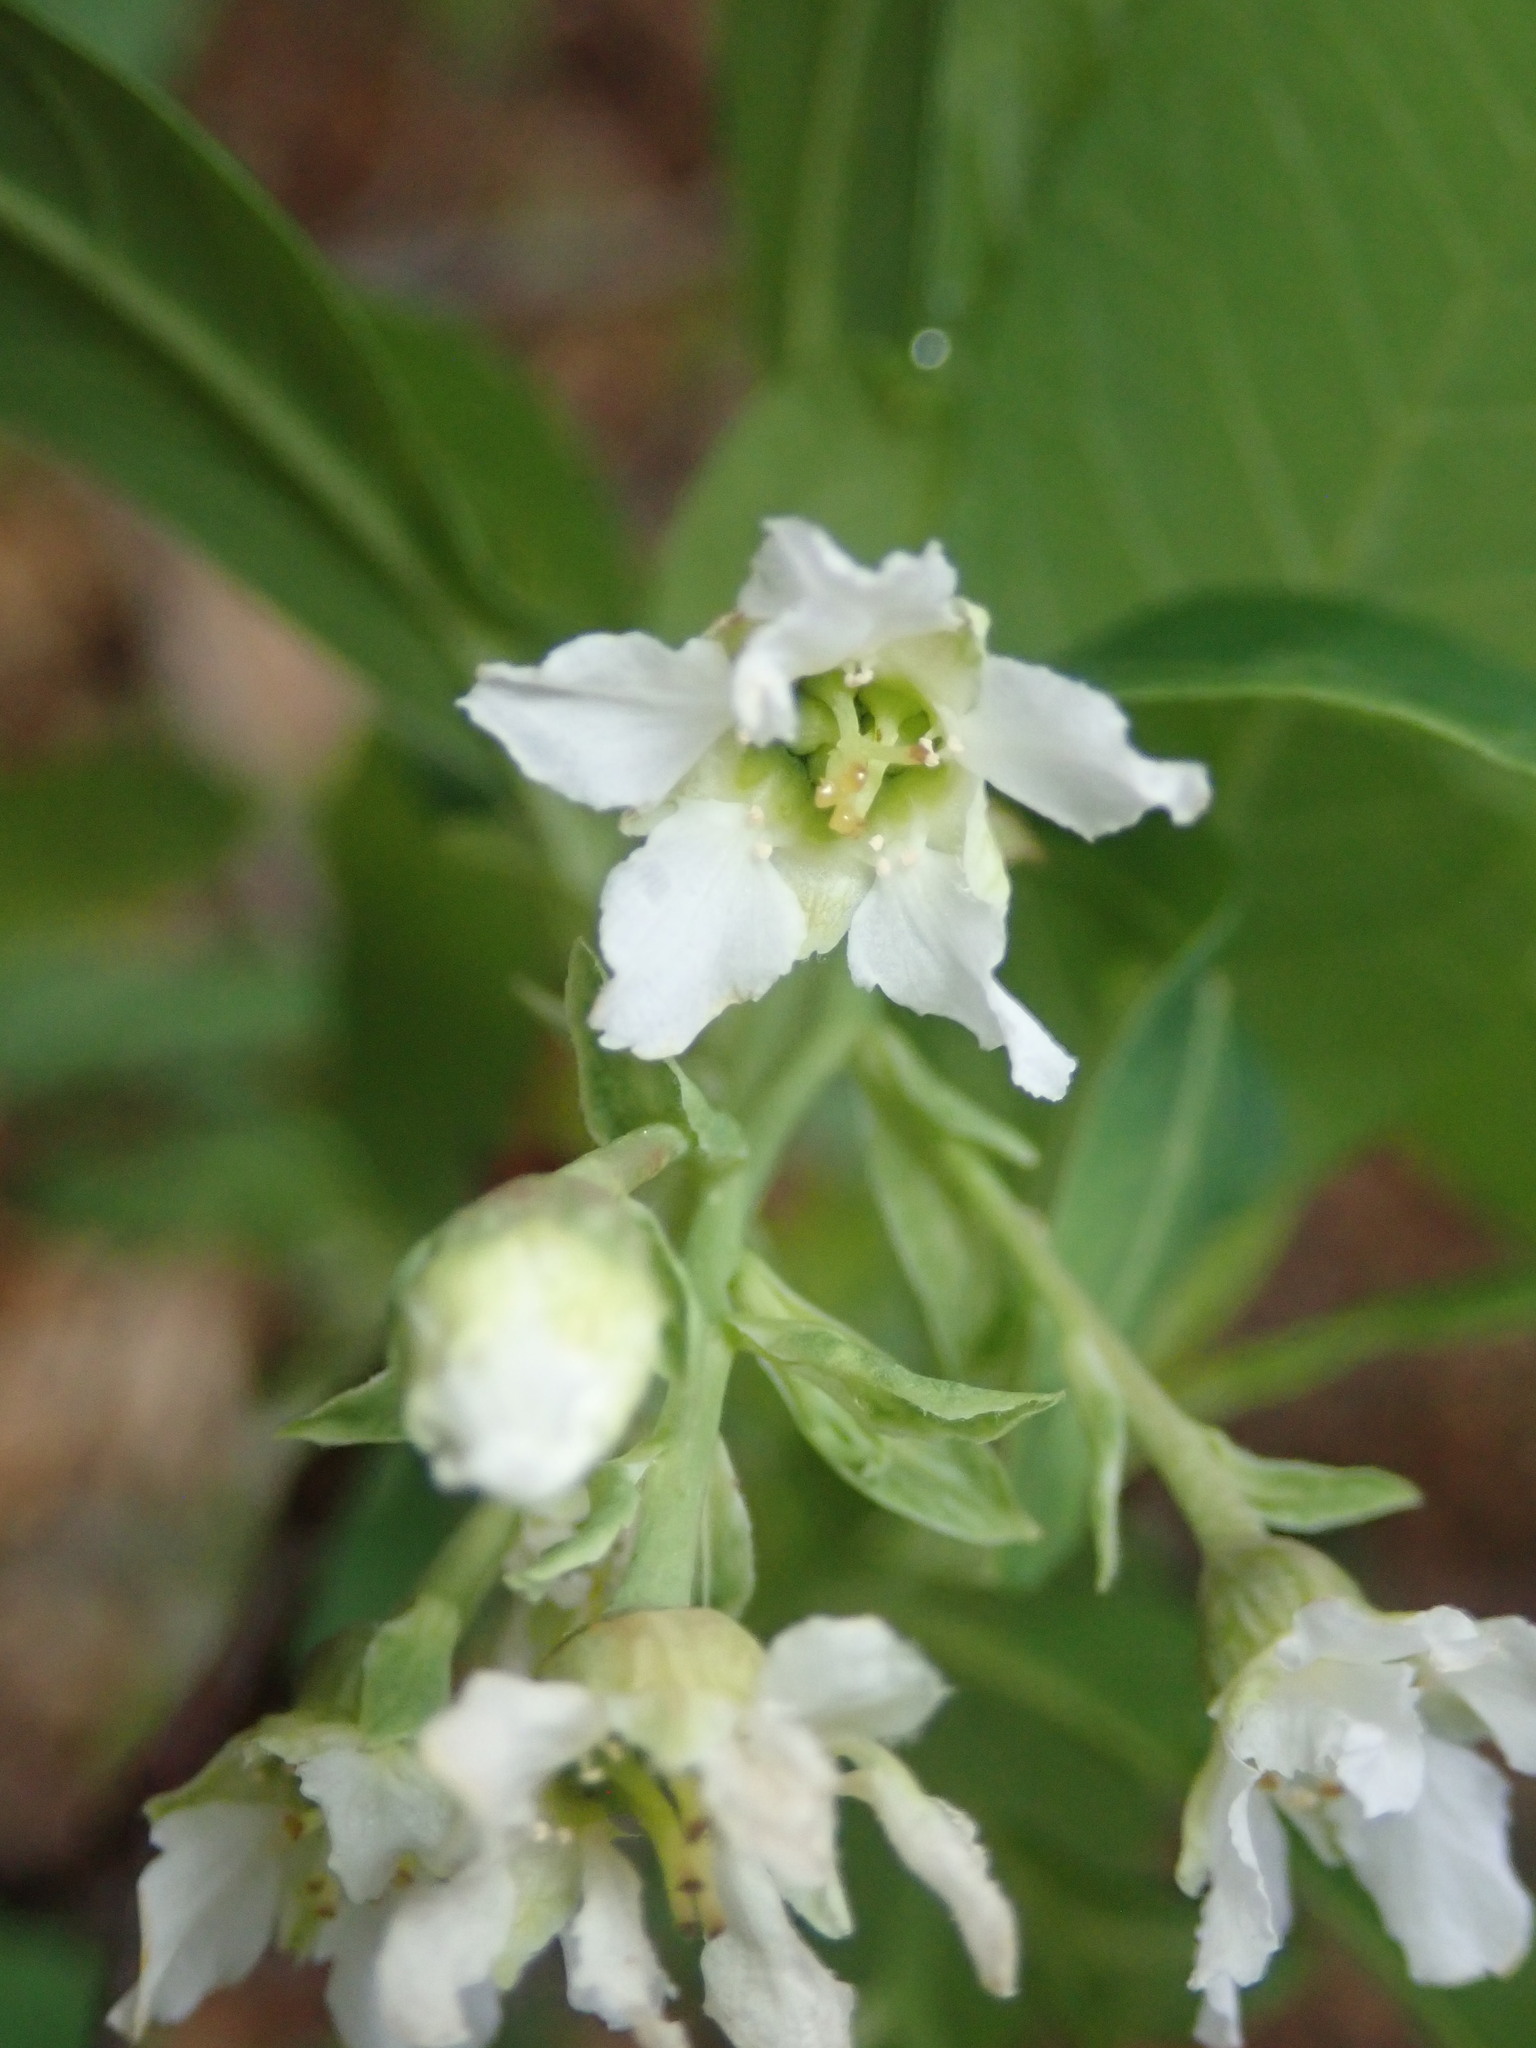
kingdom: Plantae
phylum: Tracheophyta
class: Magnoliopsida
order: Rosales
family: Rosaceae
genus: Oemleria
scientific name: Oemleria cerasiformis
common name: Osoberry
